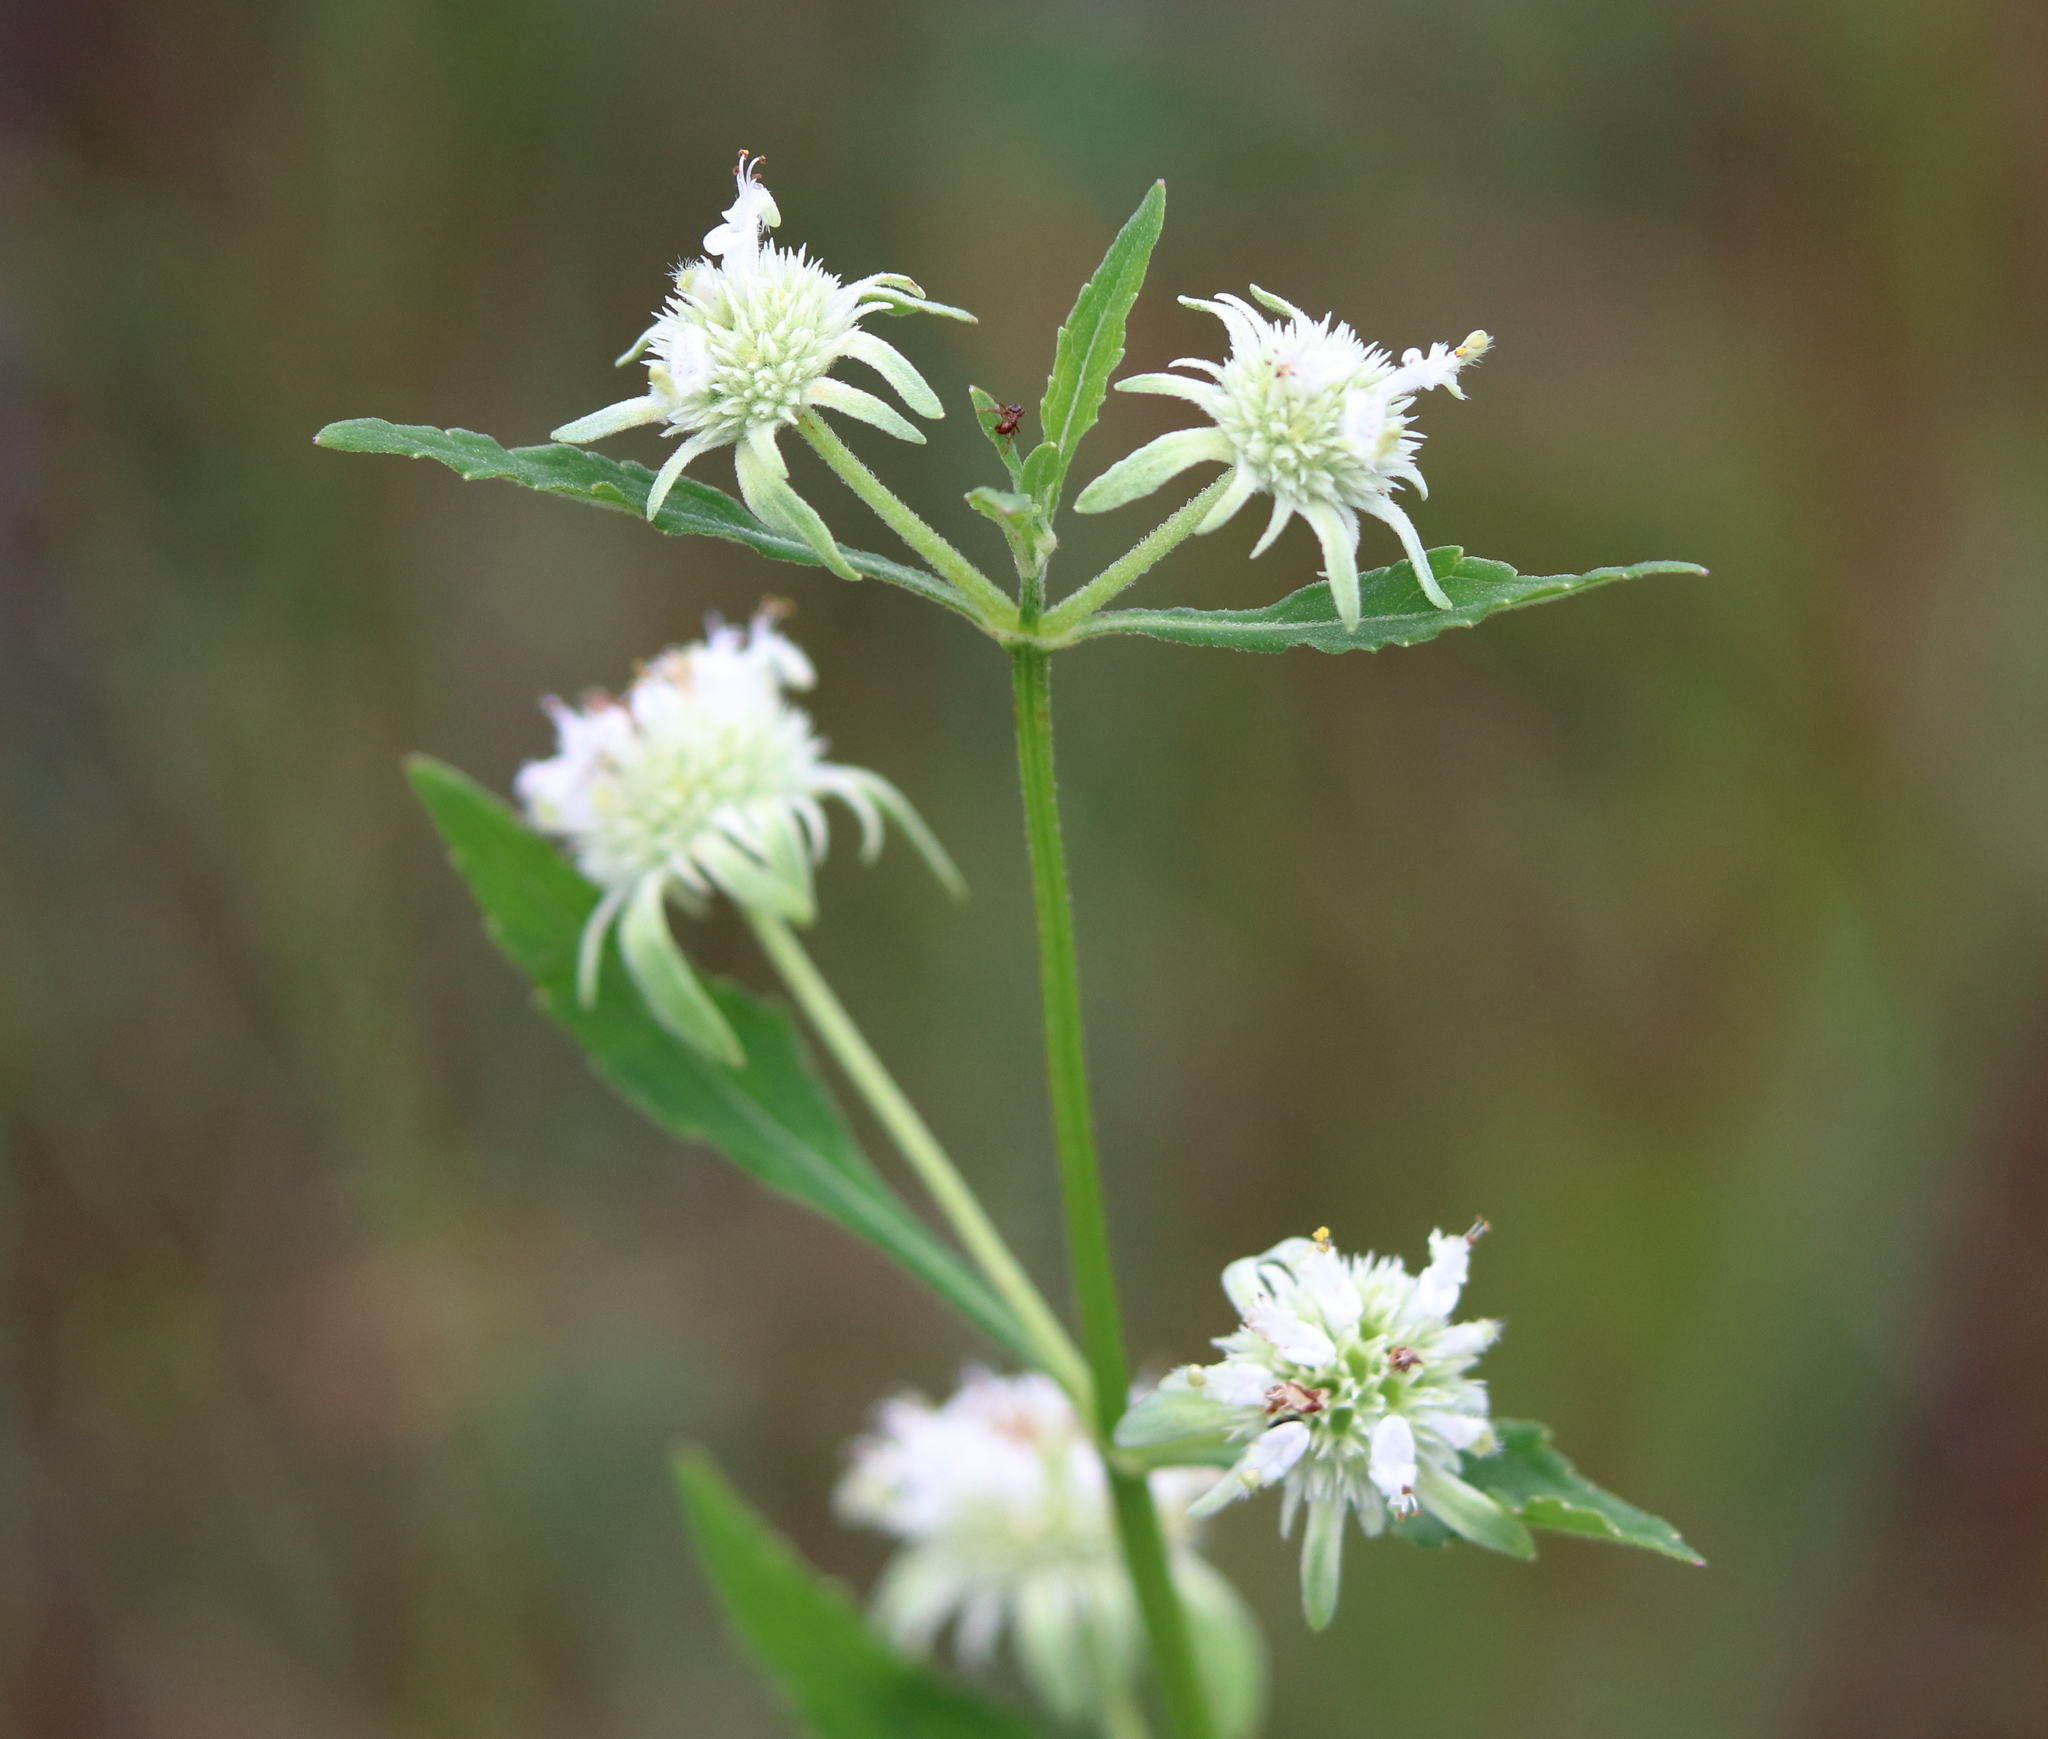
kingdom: Plantae
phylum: Tracheophyta
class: Magnoliopsida
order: Lamiales
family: Lamiaceae
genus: Hyptis
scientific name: Hyptis alata
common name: Cluster bush-mint
